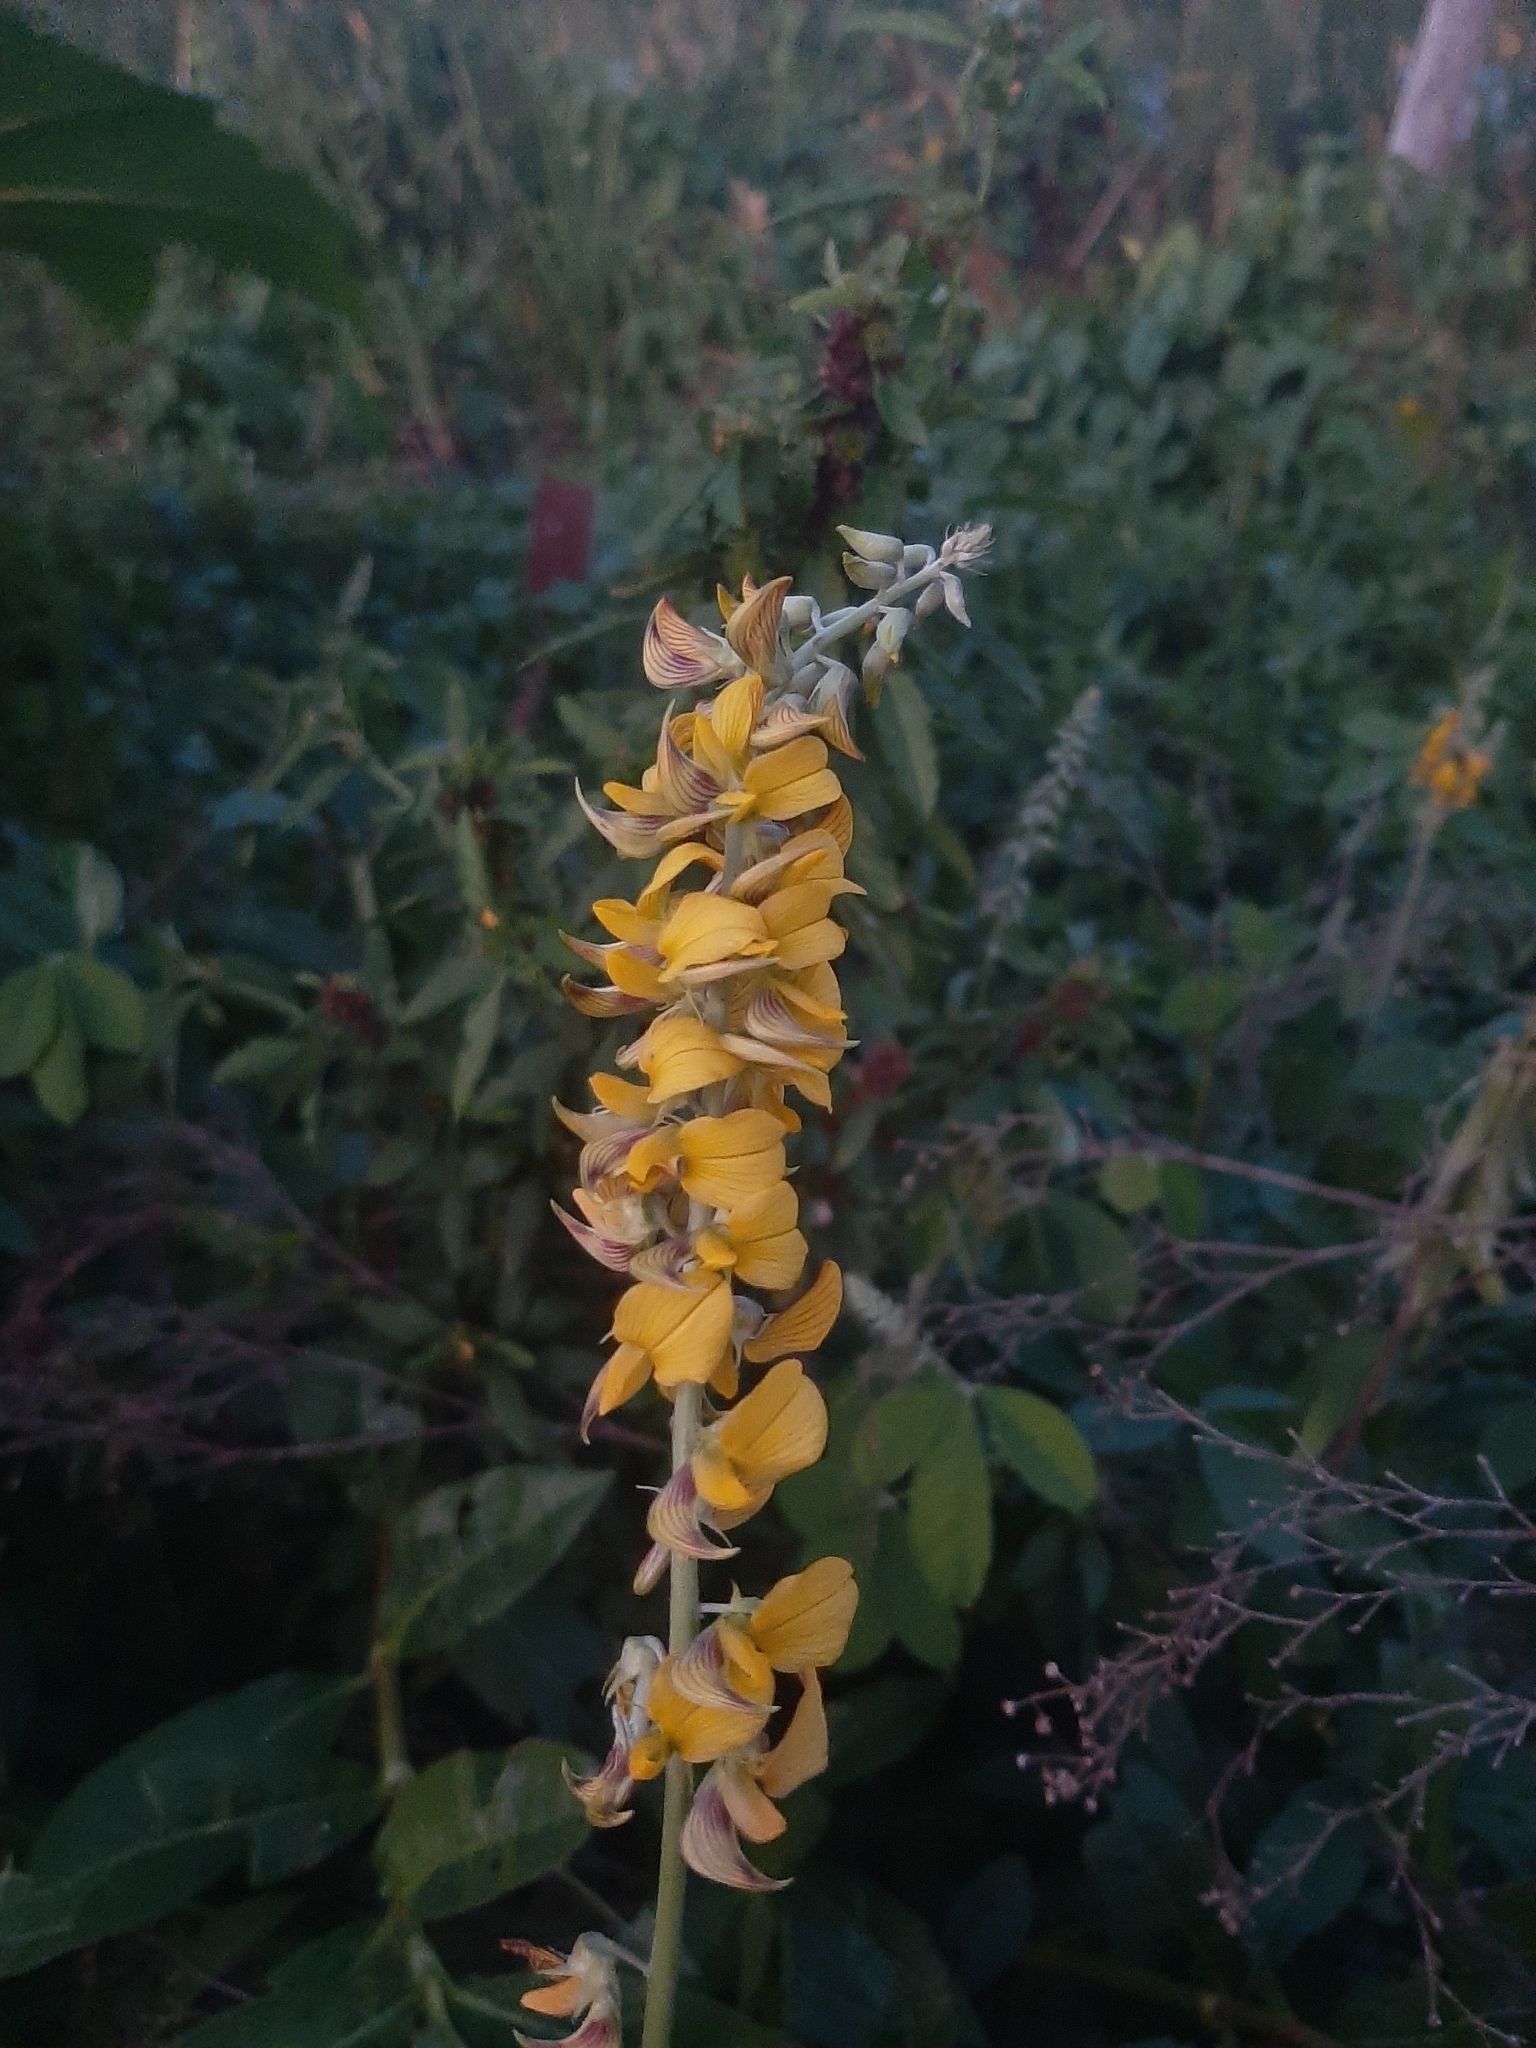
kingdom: Plantae
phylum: Tracheophyta
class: Magnoliopsida
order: Fabales
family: Fabaceae
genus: Crotalaria
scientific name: Crotalaria pallida
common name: Smooth rattlebox
